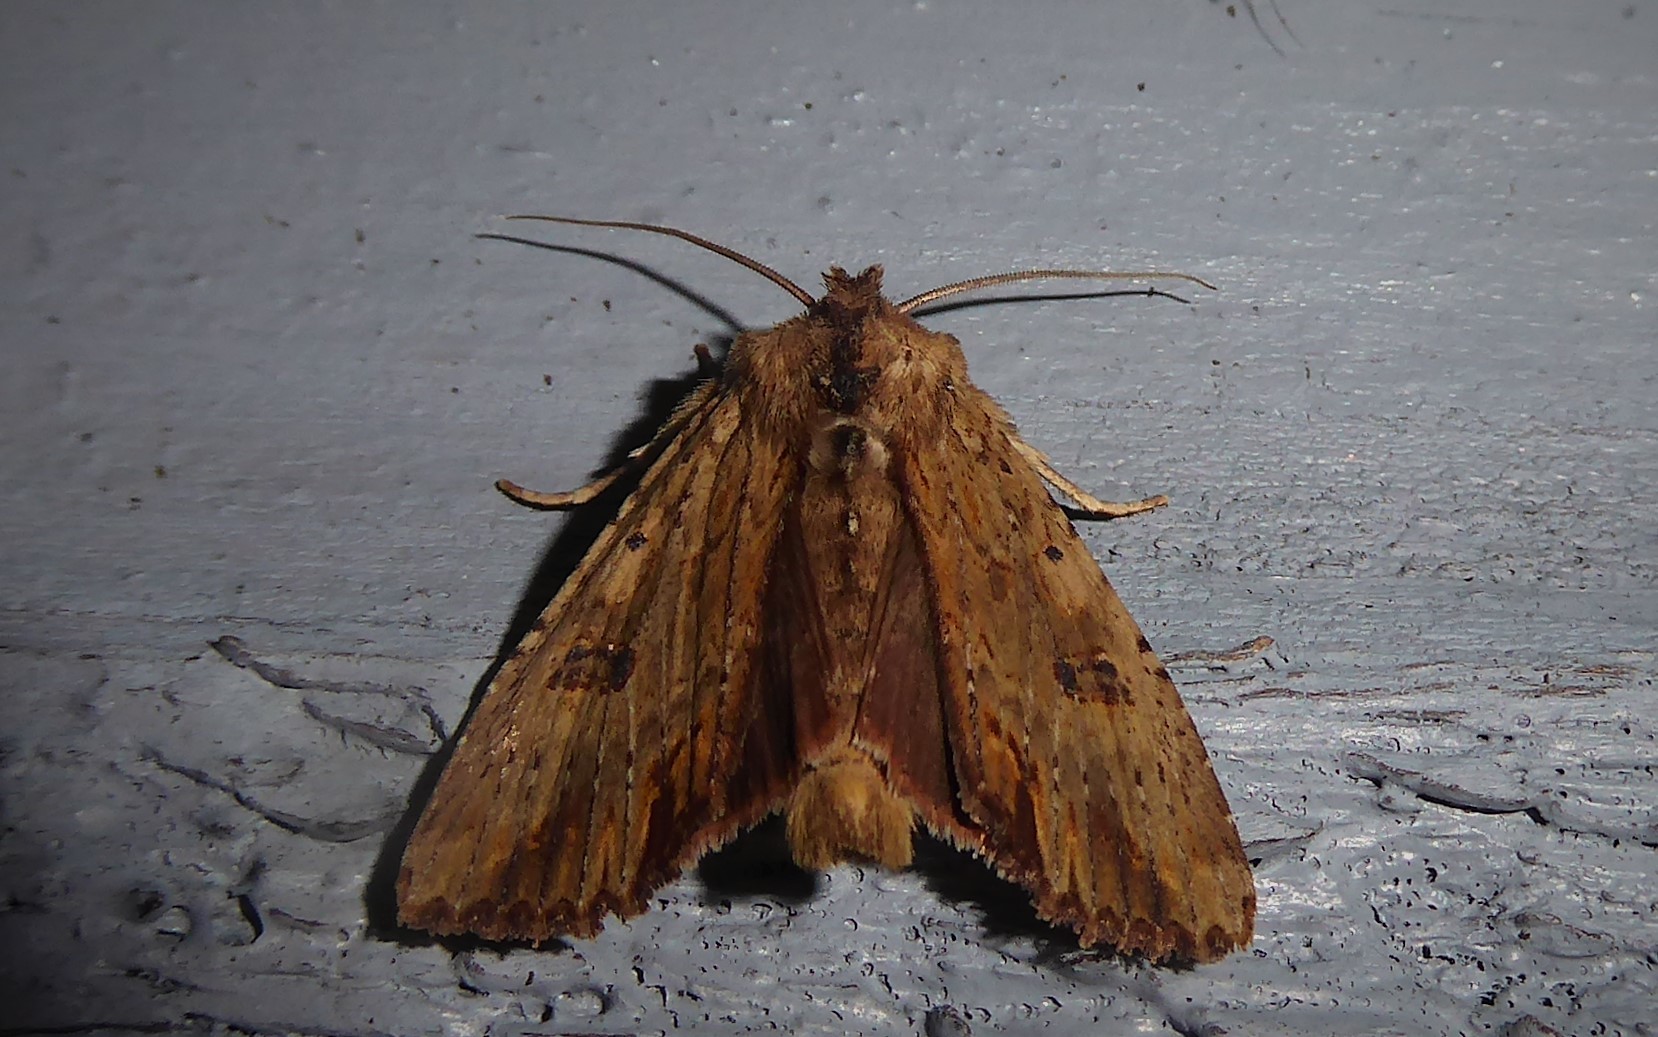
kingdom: Animalia
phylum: Arthropoda
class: Insecta
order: Lepidoptera
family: Noctuidae
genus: Ichneutica
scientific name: Ichneutica
